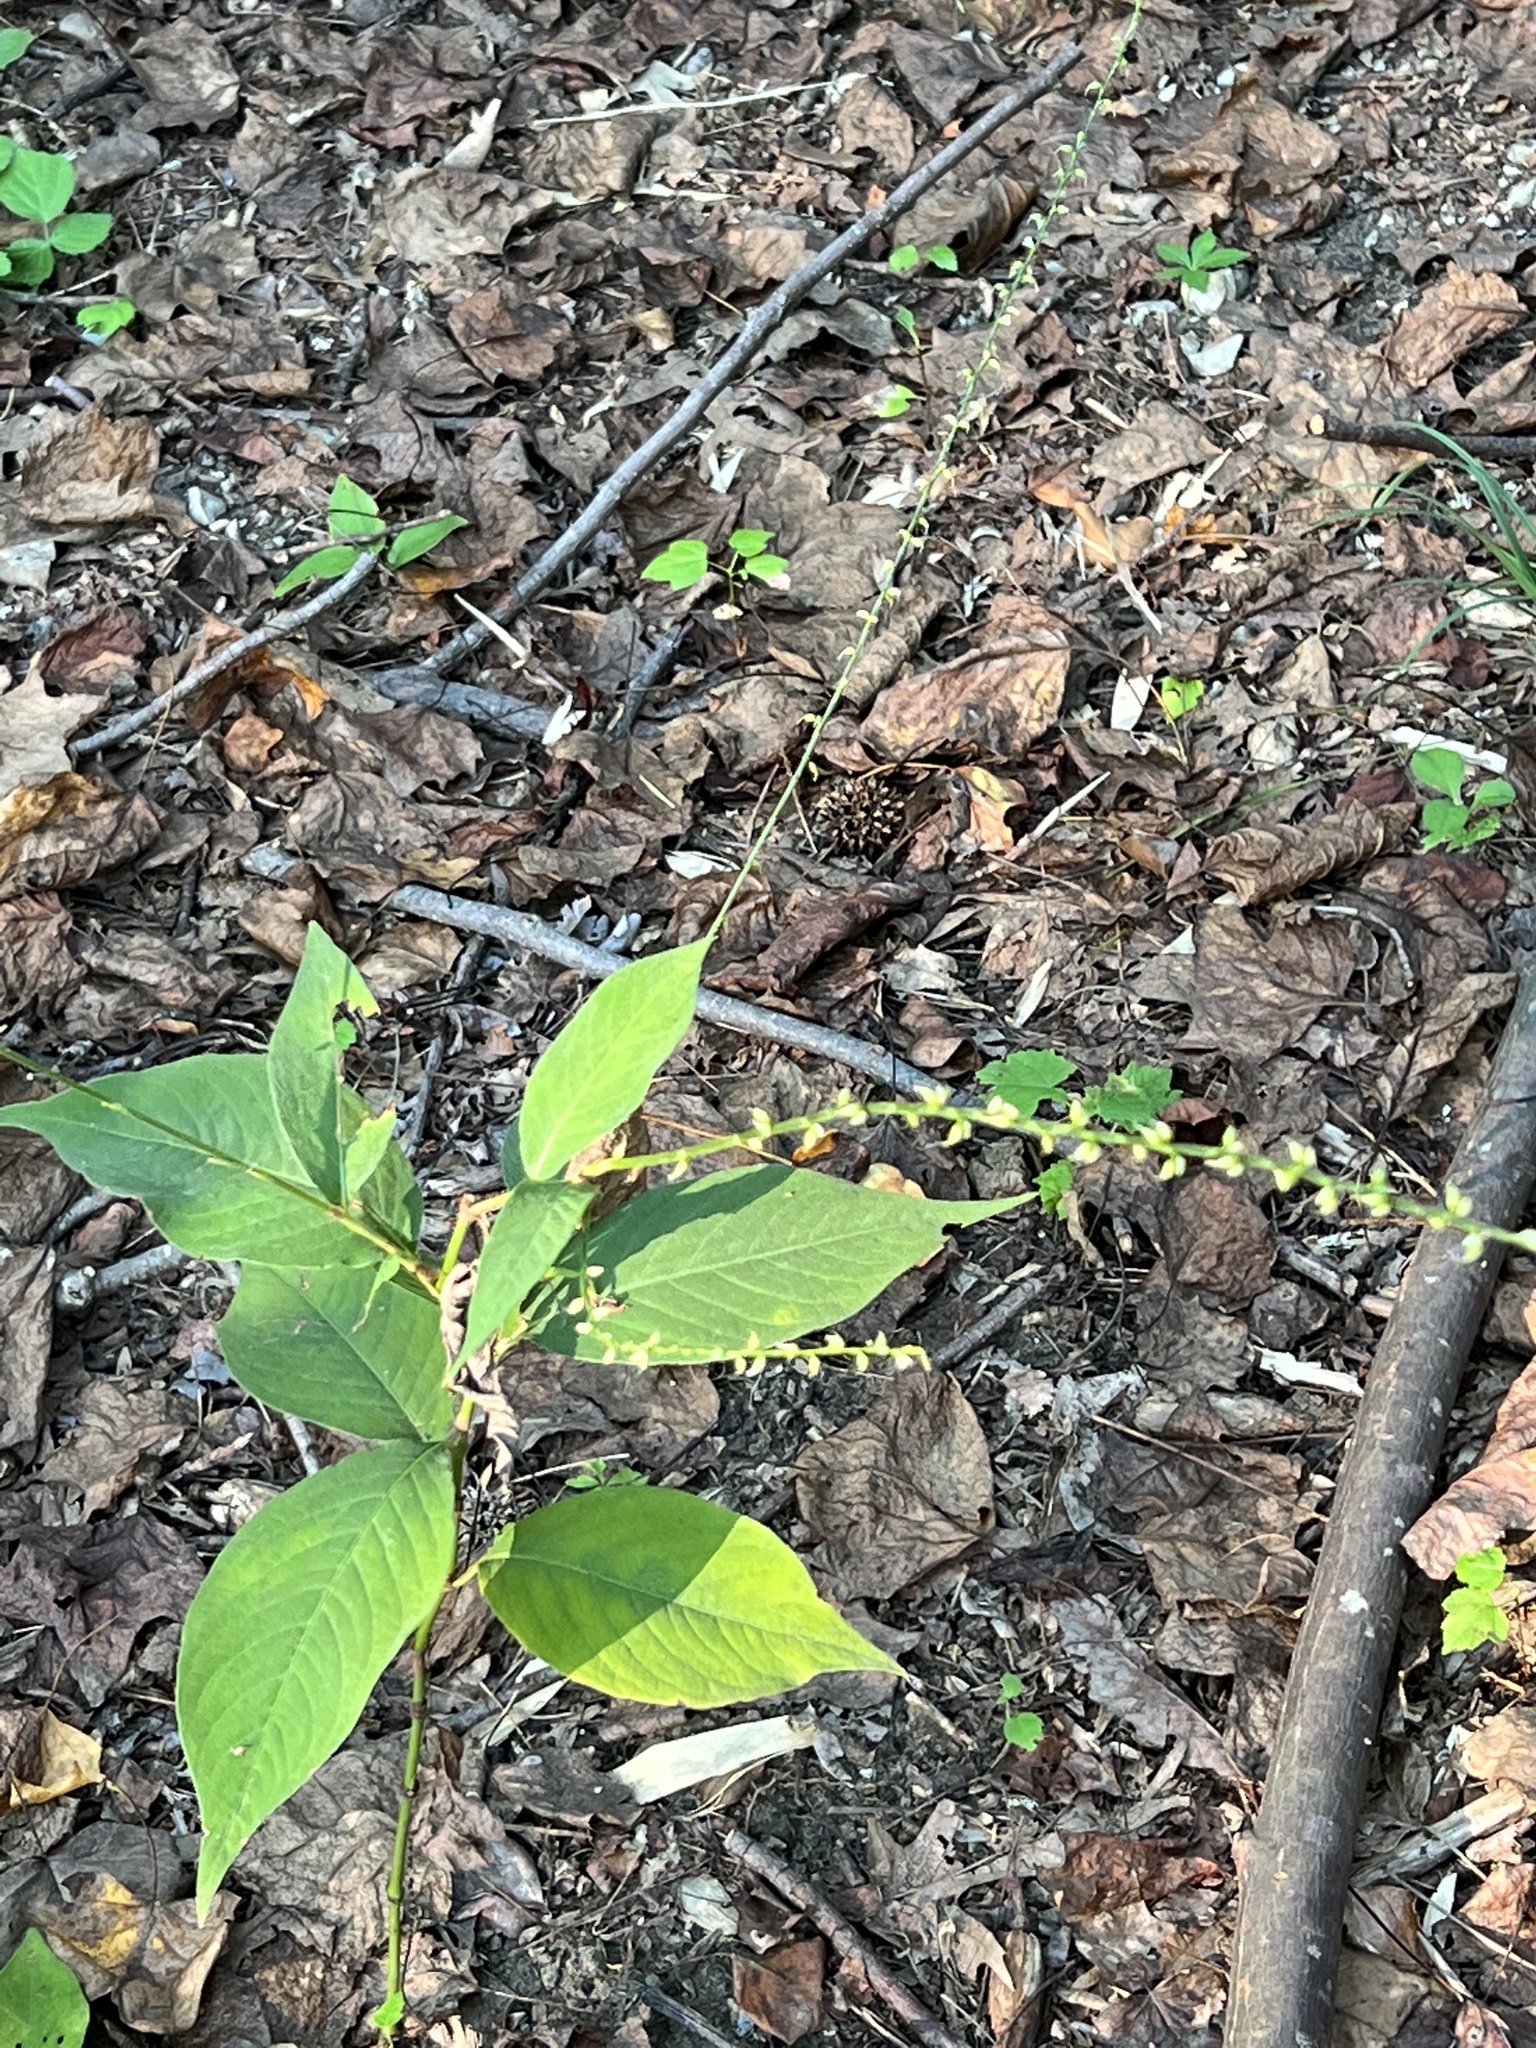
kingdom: Plantae
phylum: Tracheophyta
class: Magnoliopsida
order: Caryophyllales
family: Polygonaceae
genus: Persicaria
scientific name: Persicaria virginiana
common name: Jumpseed
